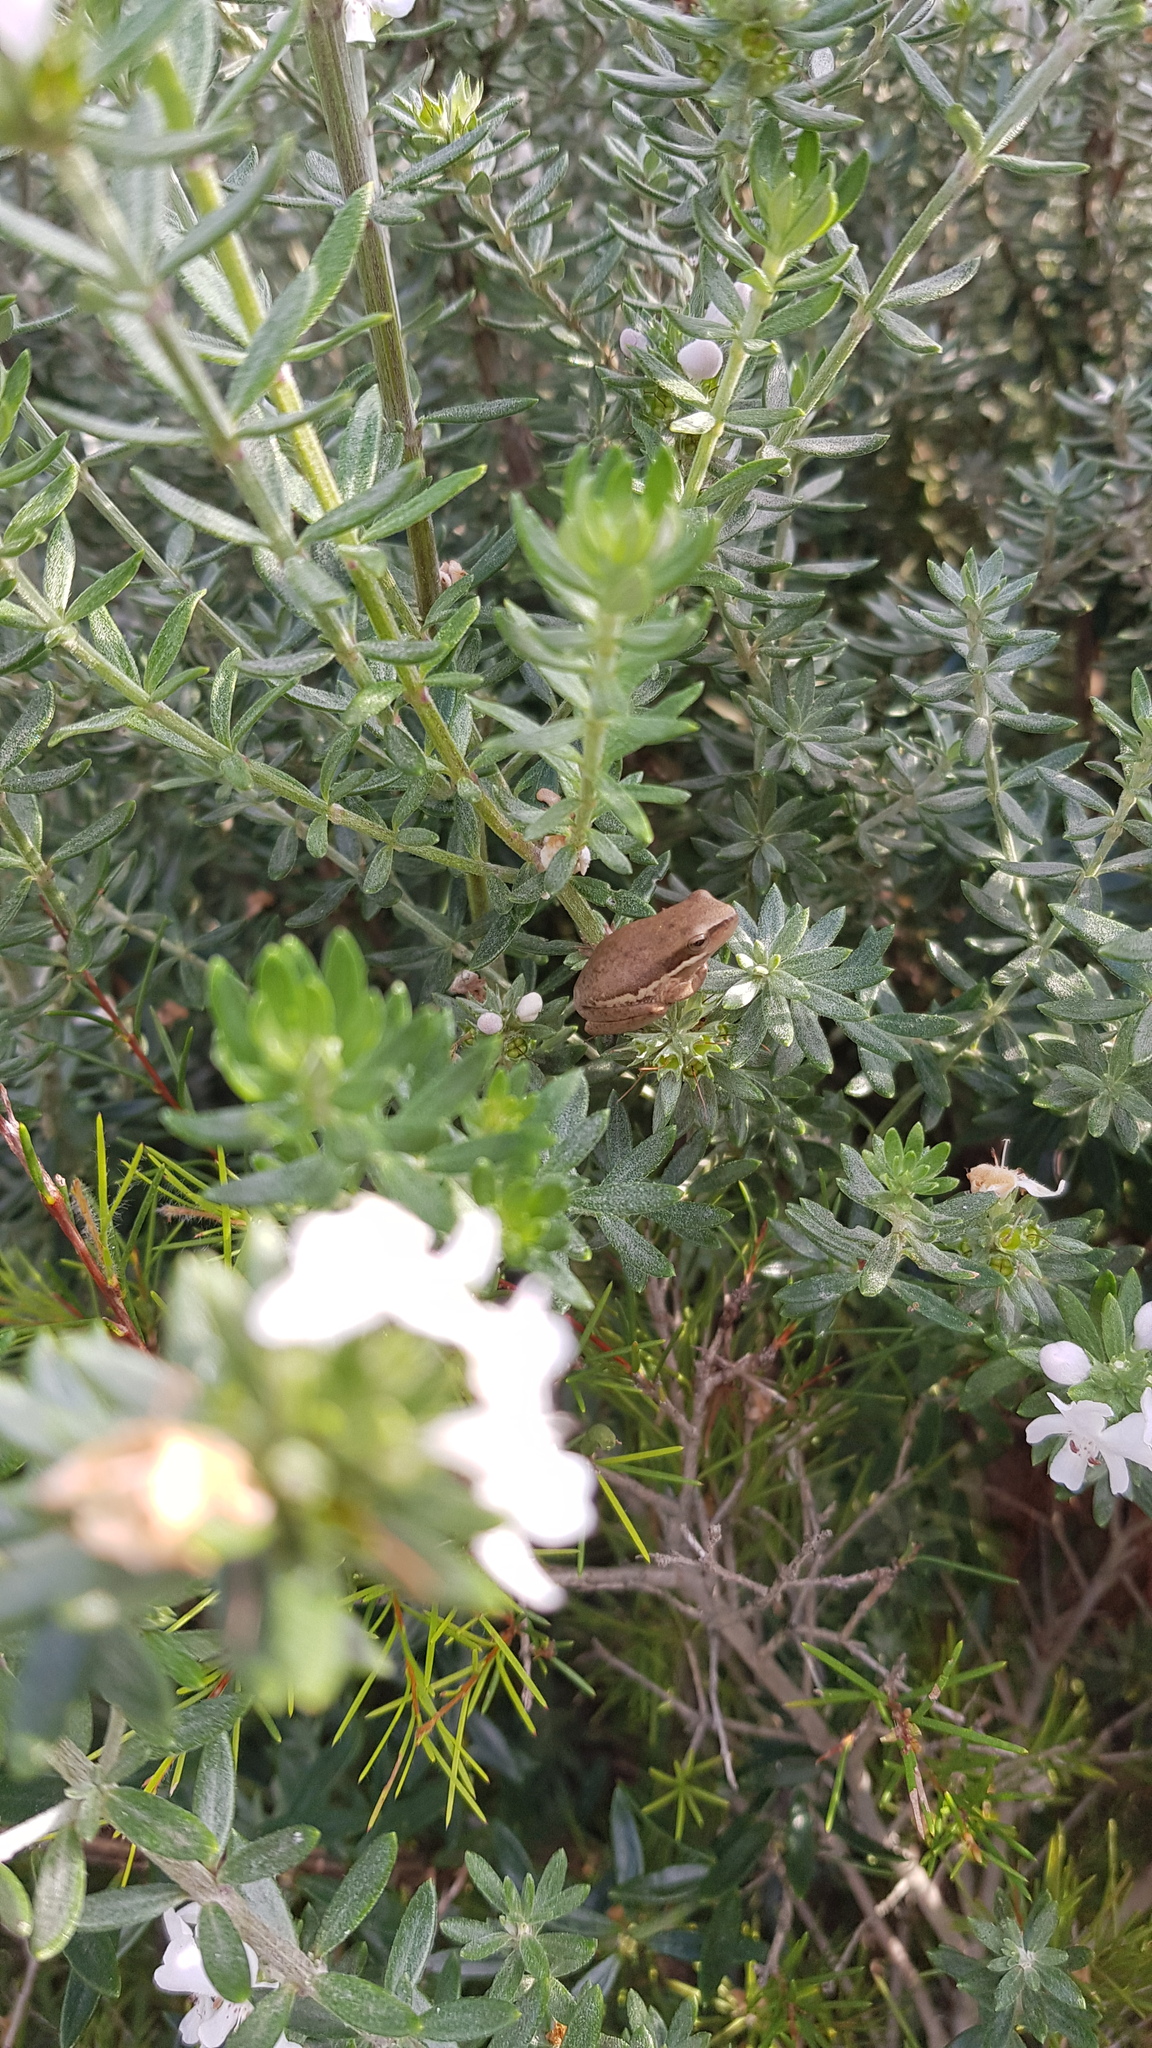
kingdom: Animalia
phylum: Chordata
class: Amphibia
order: Anura
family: Pelodryadidae
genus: Litoria
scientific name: Litoria fallax
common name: Eastern dwarf treefrog
